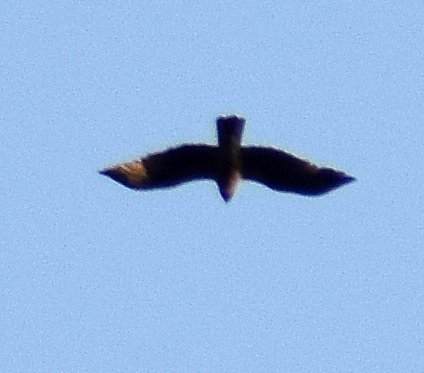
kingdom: Animalia
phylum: Chordata
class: Aves
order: Accipitriformes
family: Accipitridae
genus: Haliastur
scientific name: Haliastur indus
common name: Brahminy kite
